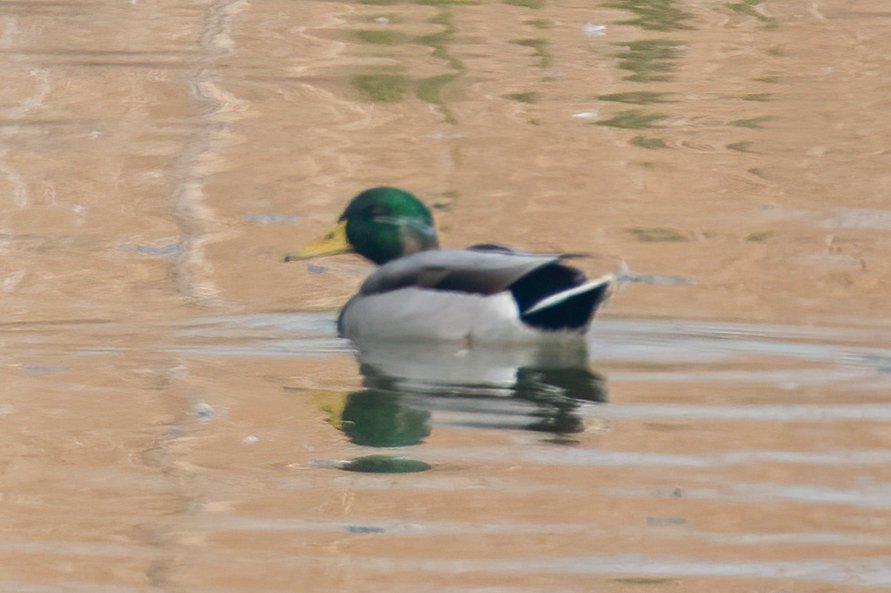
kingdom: Animalia
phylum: Chordata
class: Aves
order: Anseriformes
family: Anatidae
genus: Anas
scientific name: Anas platyrhynchos
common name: Mallard
